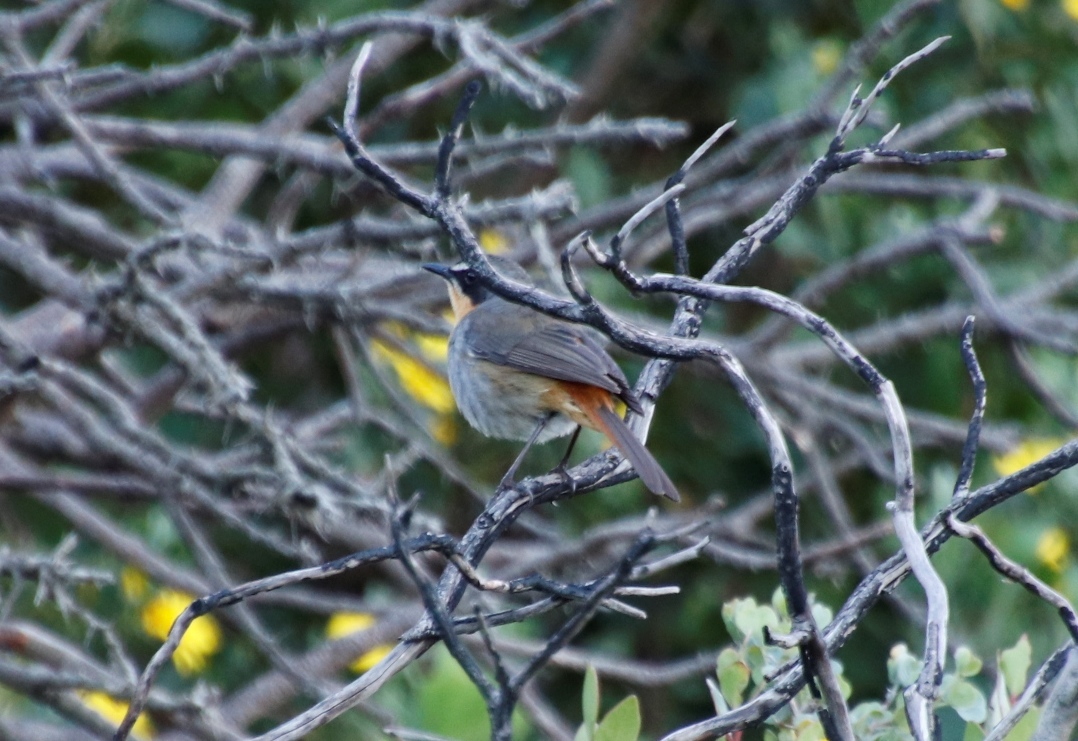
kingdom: Animalia
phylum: Chordata
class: Aves
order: Passeriformes
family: Muscicapidae
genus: Cossypha
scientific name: Cossypha caffra
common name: Cape robin-chat
